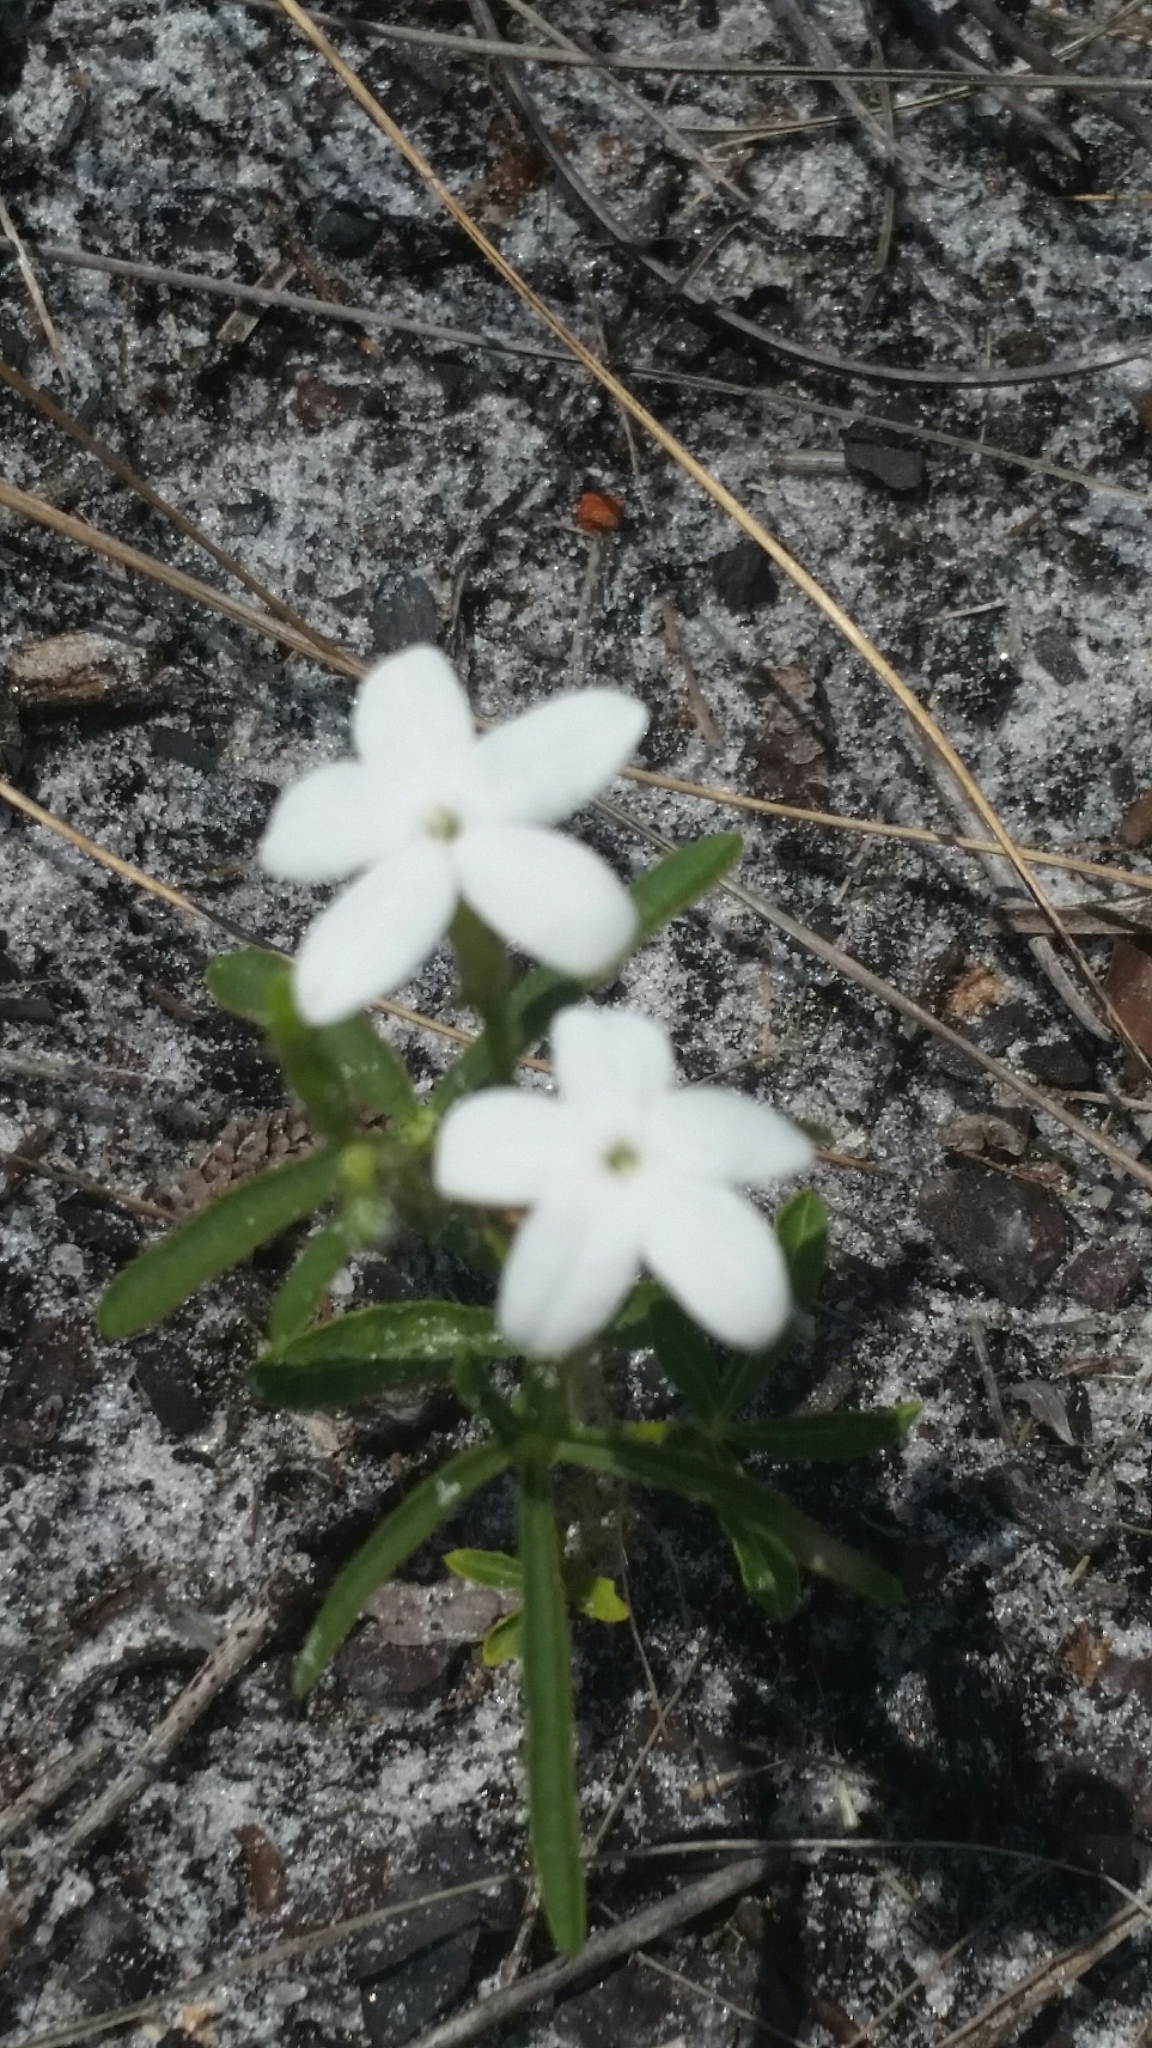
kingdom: Plantae
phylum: Tracheophyta
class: Magnoliopsida
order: Malpighiales
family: Euphorbiaceae
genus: Cnidoscolus
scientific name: Cnidoscolus stimulosus
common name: Bull-nettle
